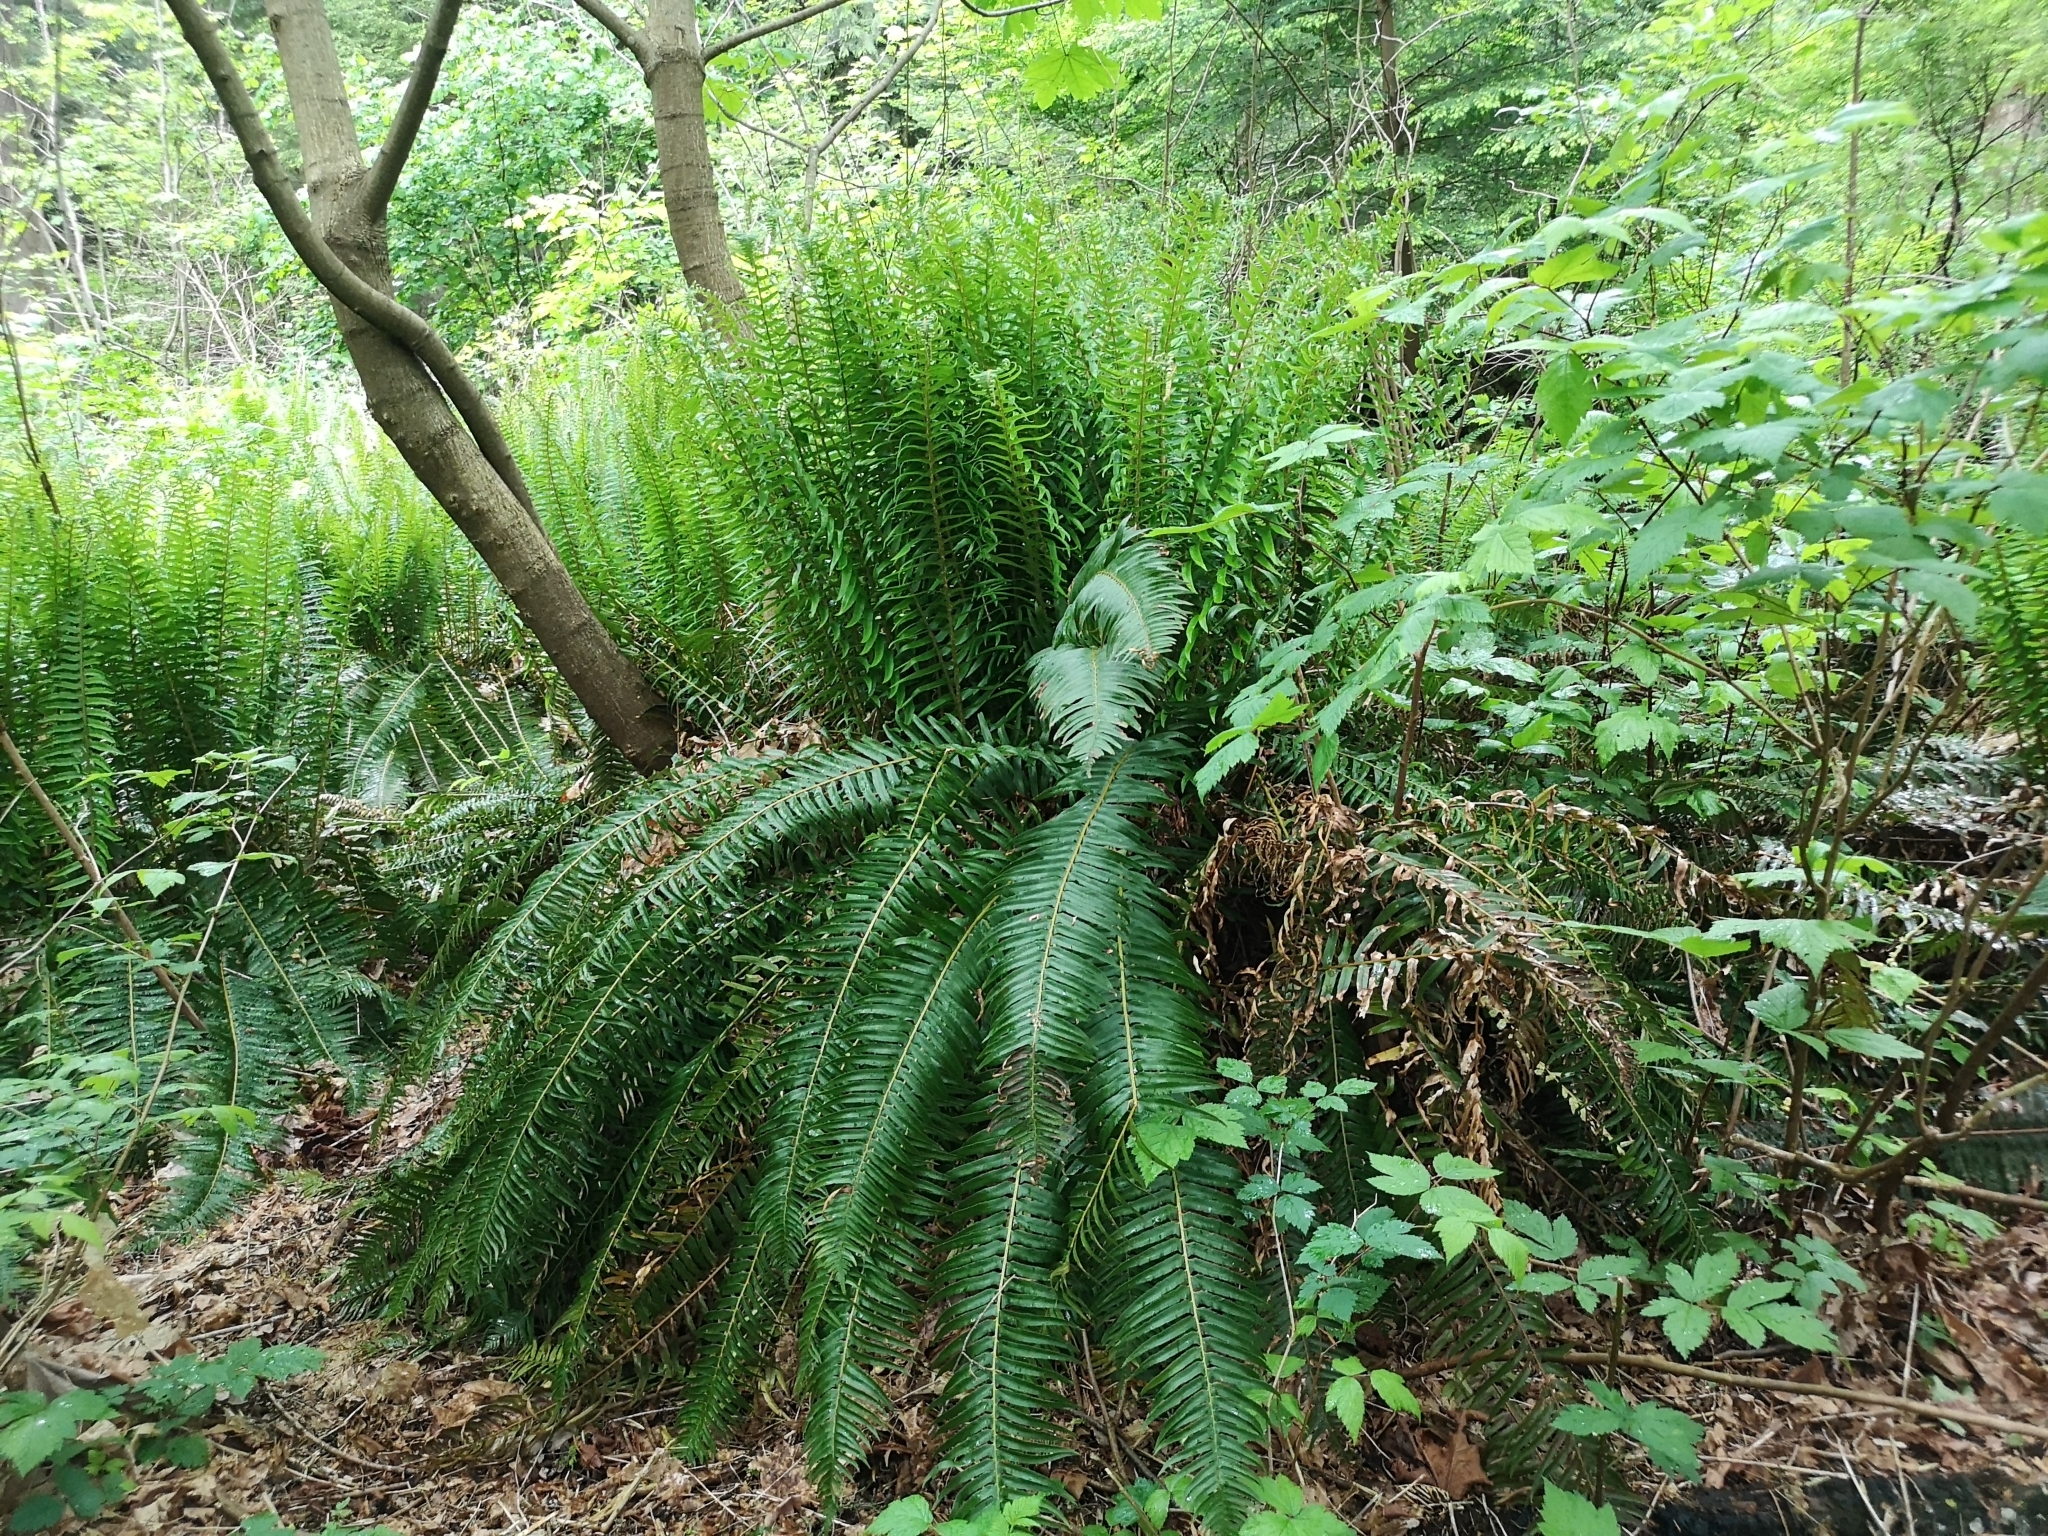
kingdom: Plantae
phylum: Tracheophyta
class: Polypodiopsida
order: Polypodiales
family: Dryopteridaceae
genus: Polystichum
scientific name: Polystichum munitum
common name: Western sword-fern
